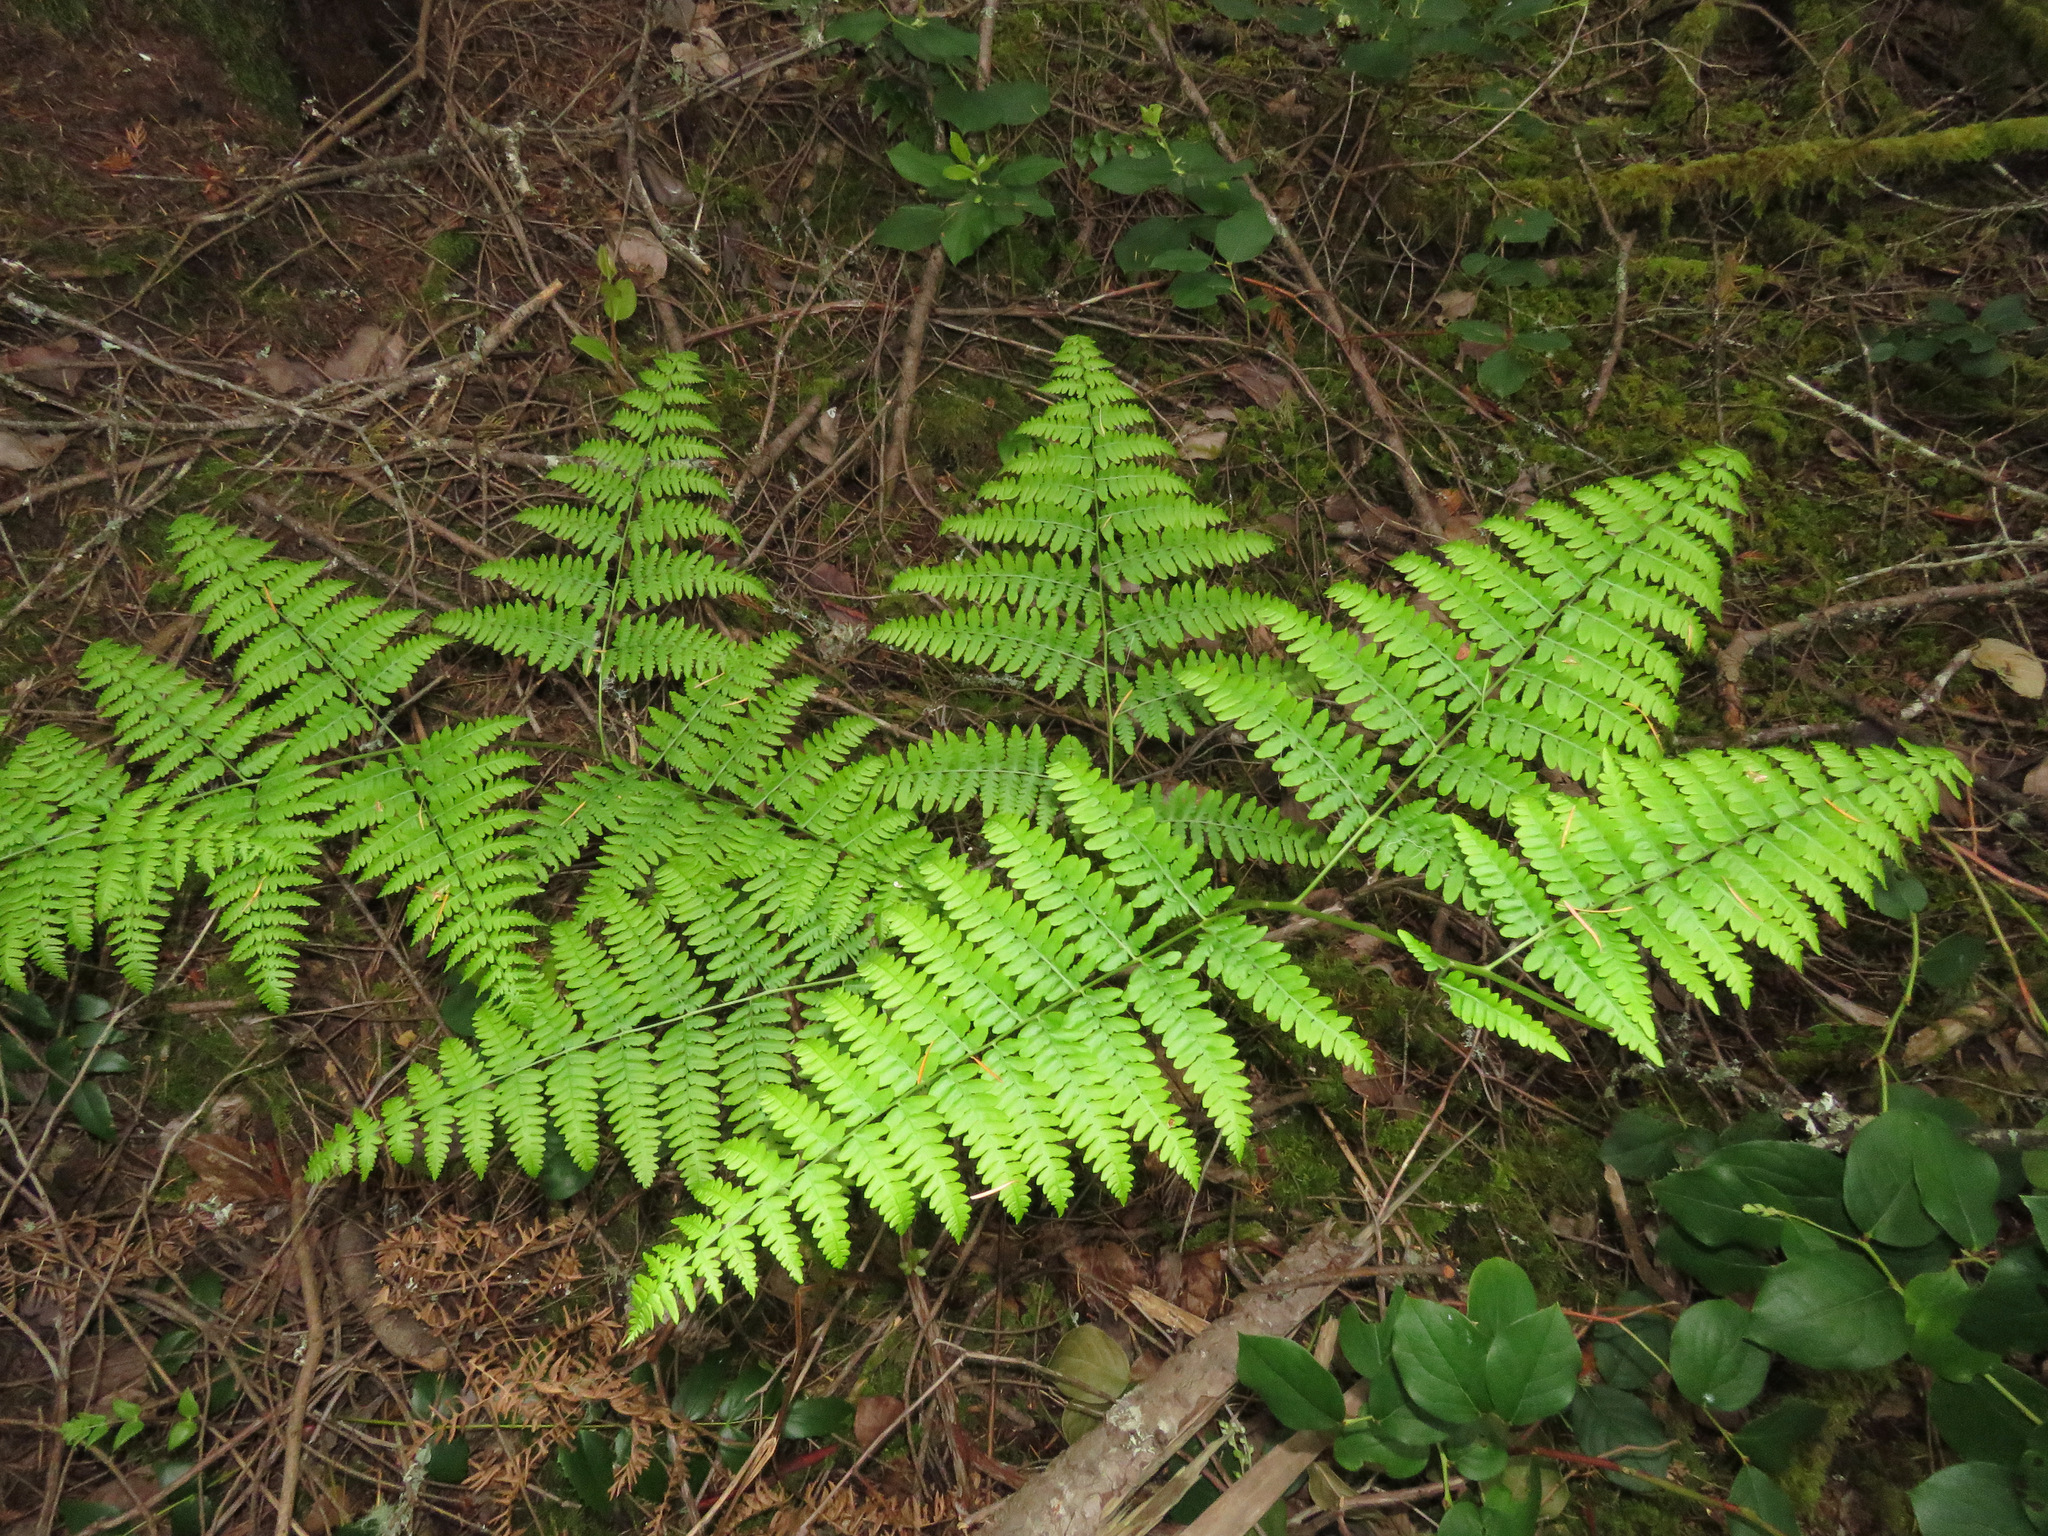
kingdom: Plantae
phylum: Tracheophyta
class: Polypodiopsida
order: Polypodiales
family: Dennstaedtiaceae
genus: Pteridium
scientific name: Pteridium aquilinum
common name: Bracken
